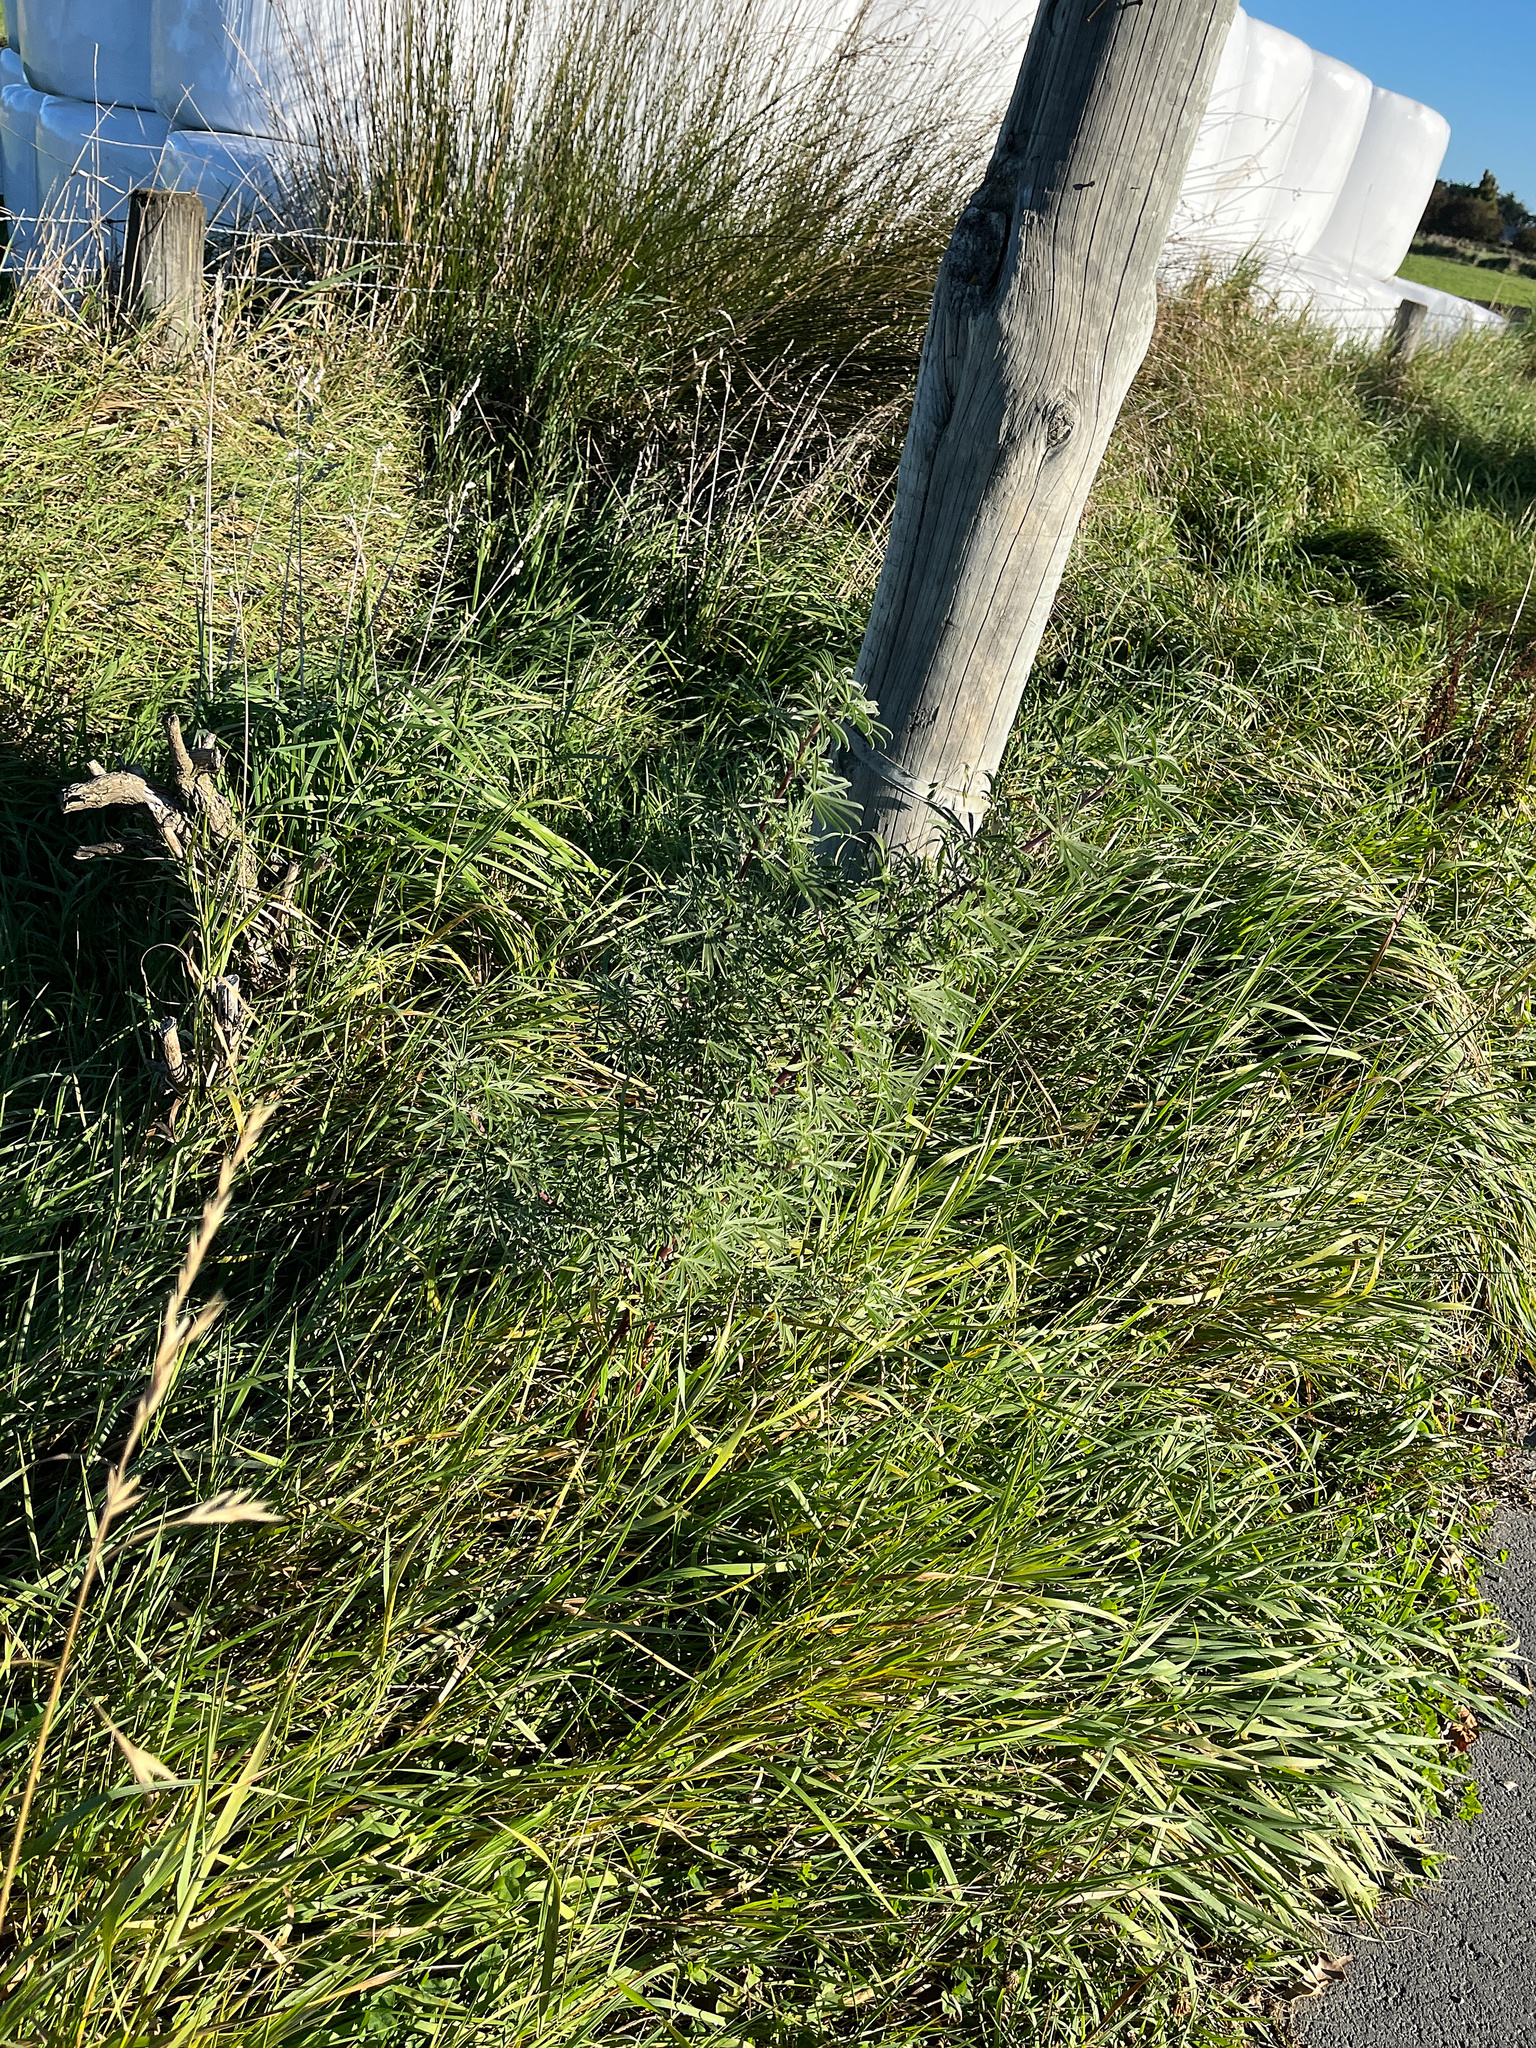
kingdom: Plantae
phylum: Tracheophyta
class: Magnoliopsida
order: Fabales
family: Fabaceae
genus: Lupinus
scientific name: Lupinus arboreus
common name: Yellow bush lupine
